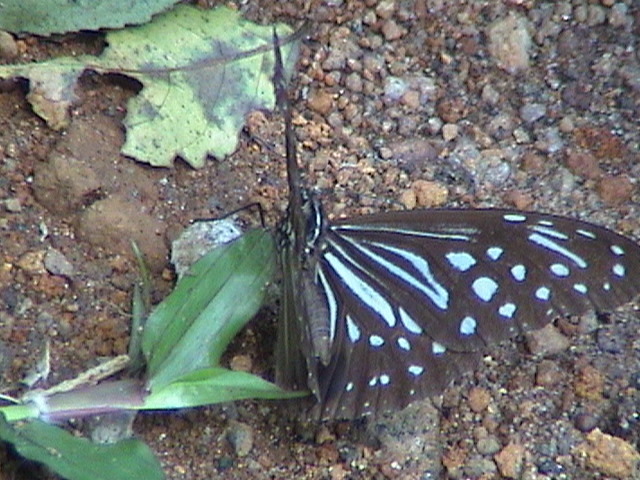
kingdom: Animalia
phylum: Arthropoda
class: Insecta
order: Lepidoptera
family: Nymphalidae
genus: Parantica
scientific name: Parantica nilgiriensis
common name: Nilgiri tiger
